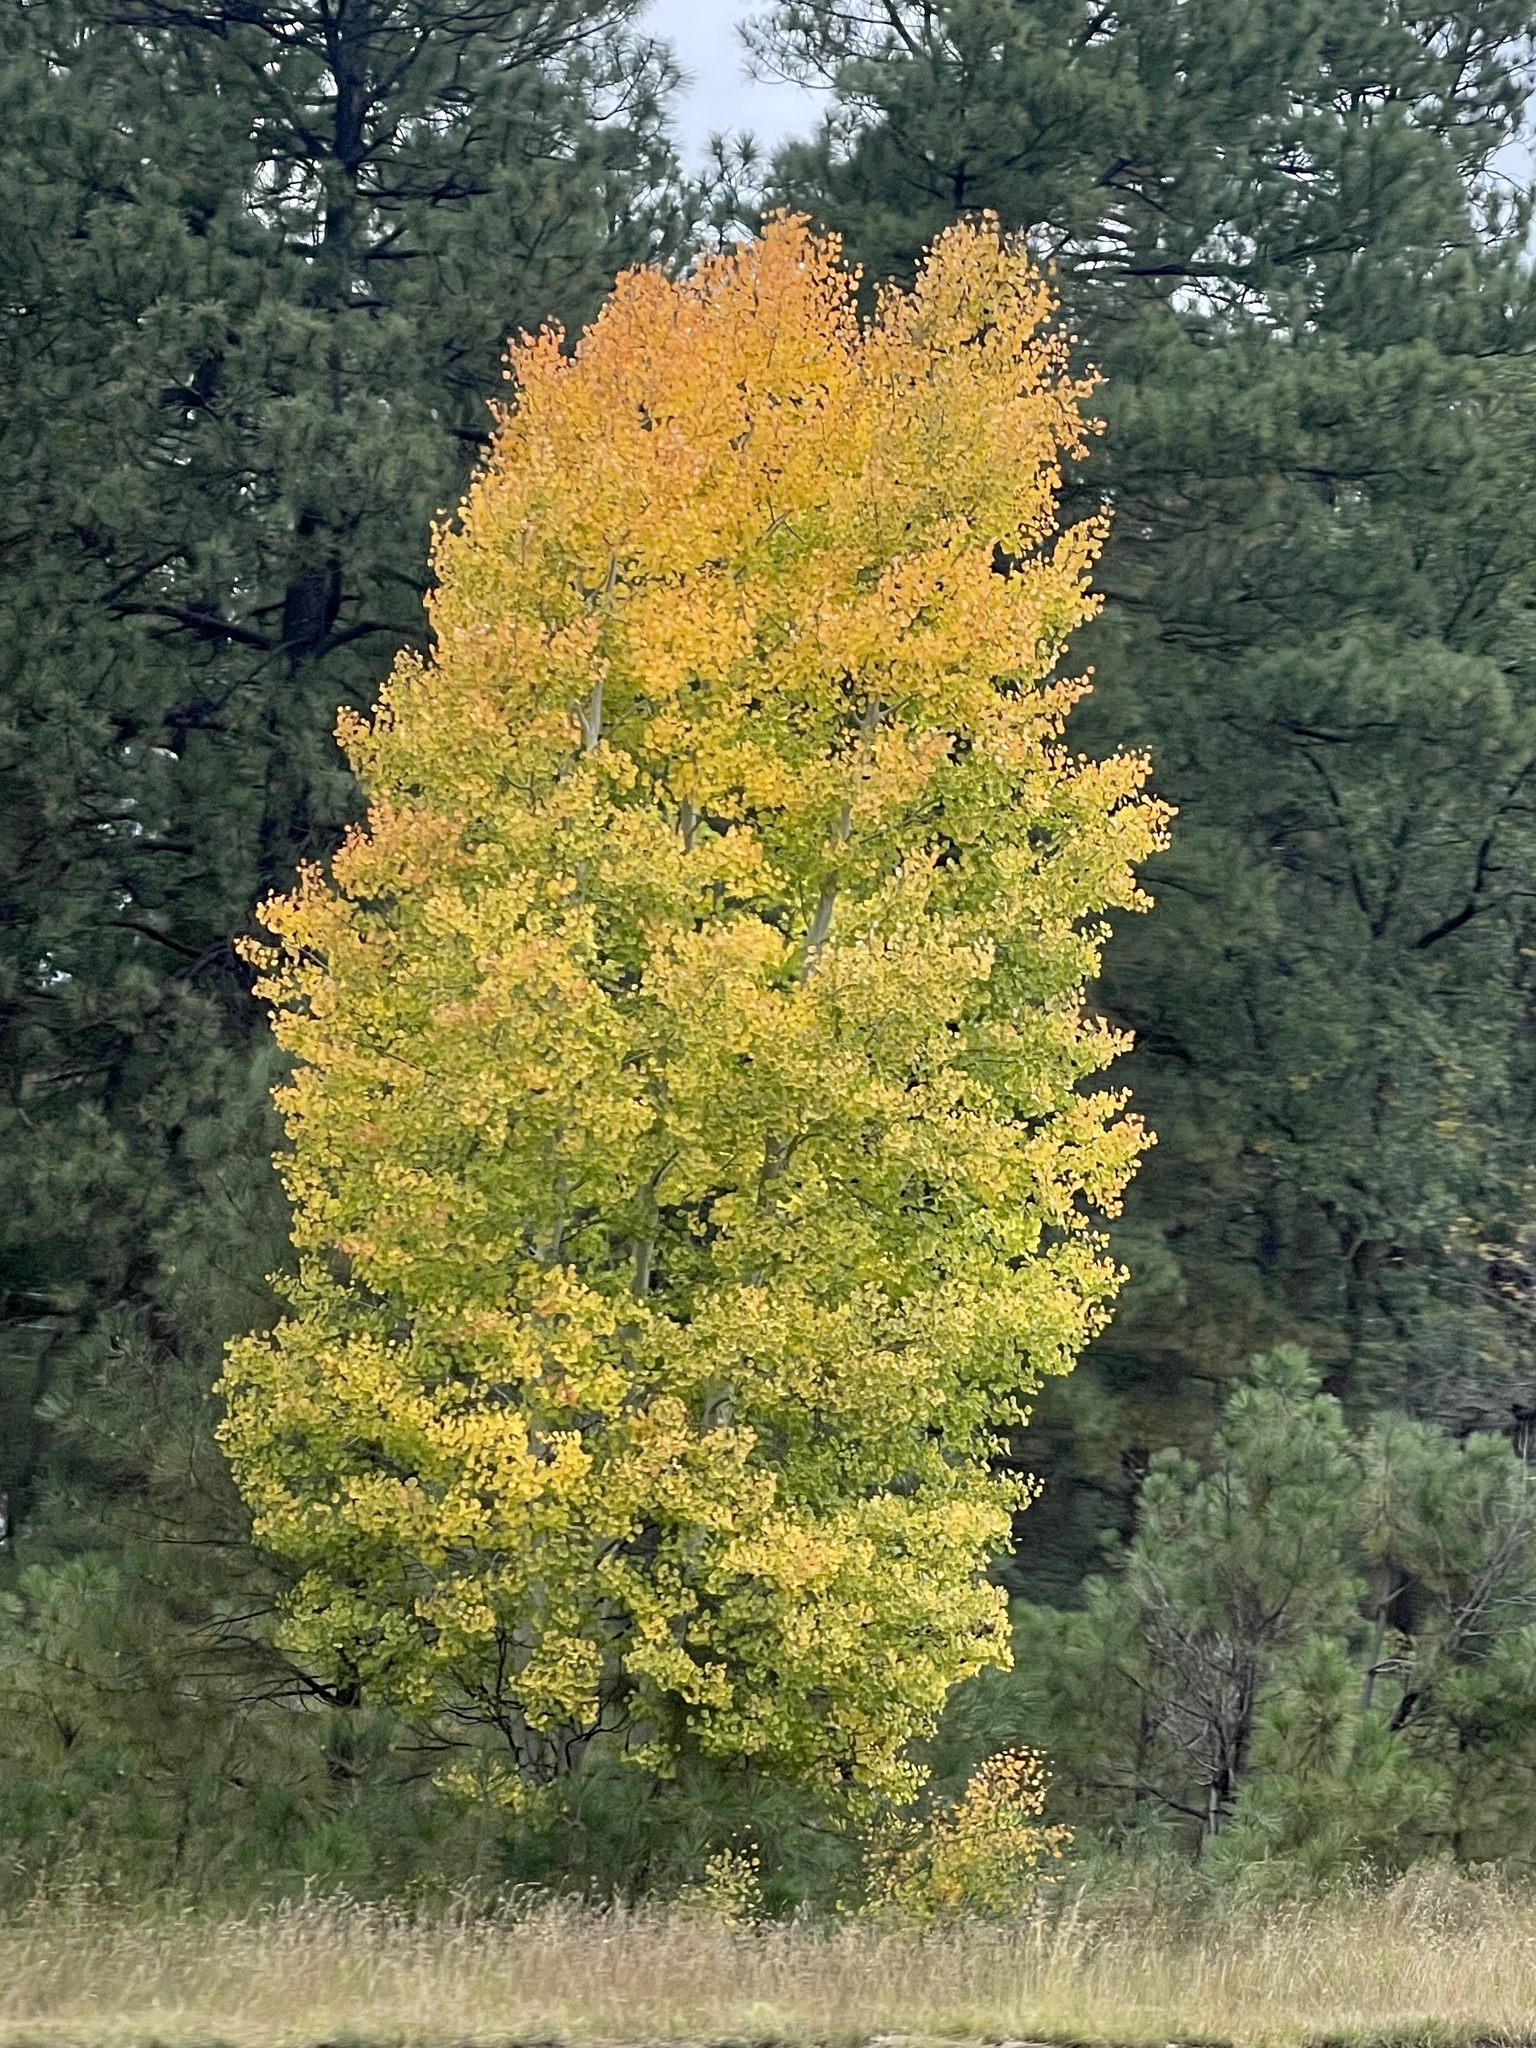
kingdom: Plantae
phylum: Tracheophyta
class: Magnoliopsida
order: Malpighiales
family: Salicaceae
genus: Populus
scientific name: Populus tremuloides
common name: Quaking aspen
